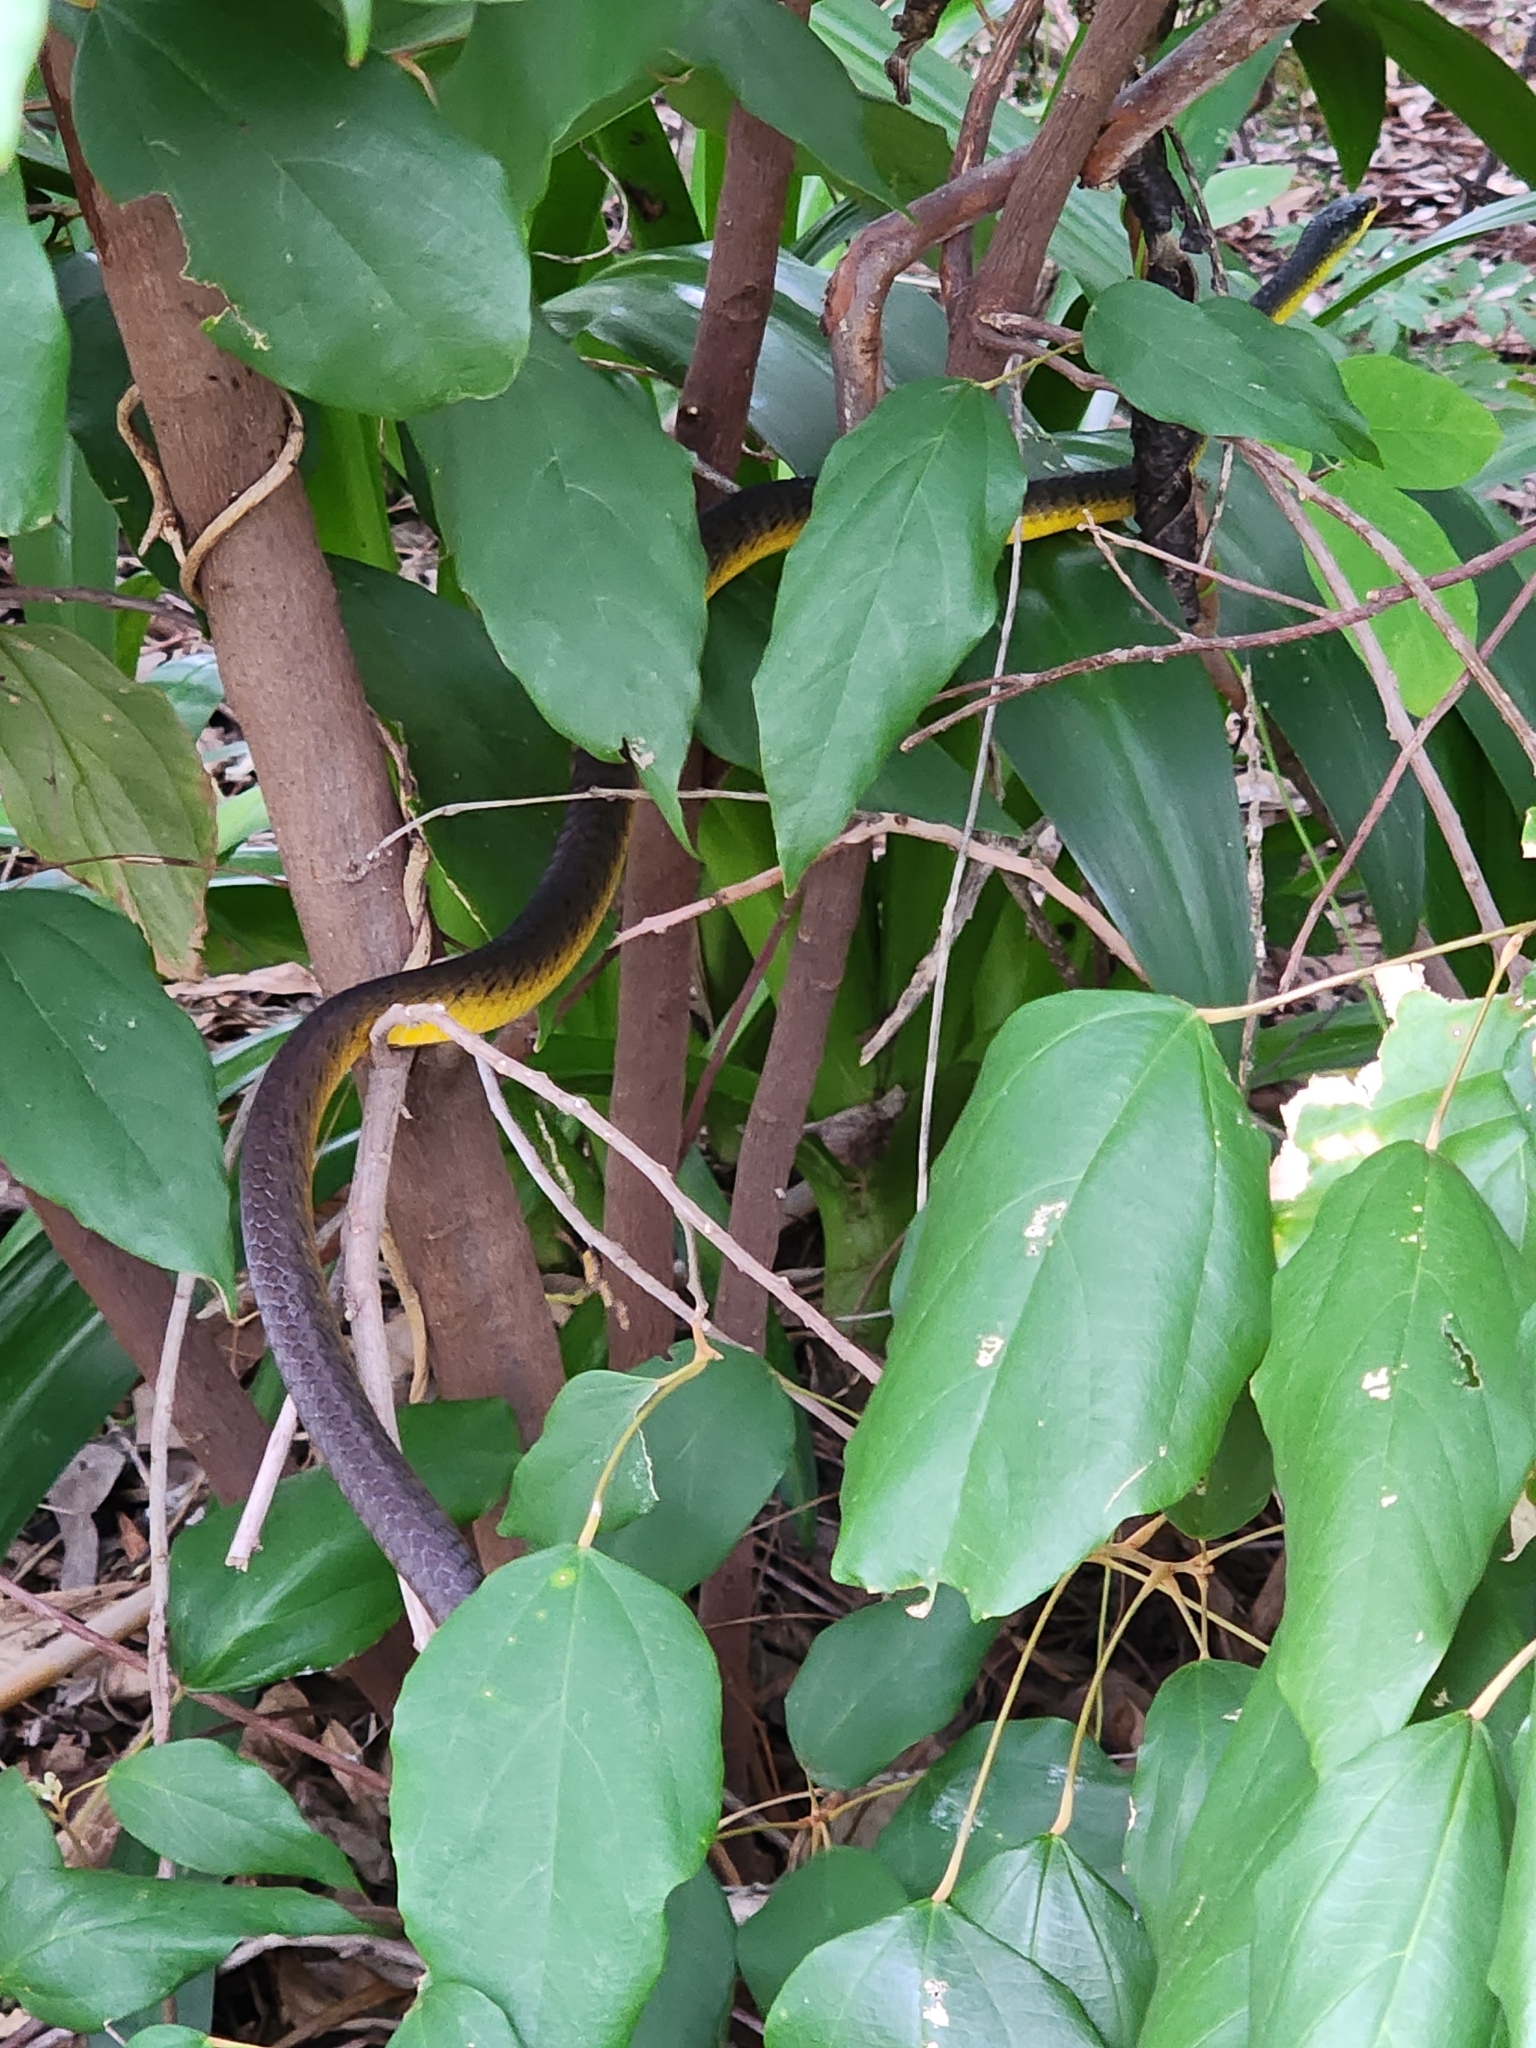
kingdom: Animalia
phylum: Chordata
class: Squamata
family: Colubridae
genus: Dendrelaphis
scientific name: Dendrelaphis punctulatus
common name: Common tree snake
